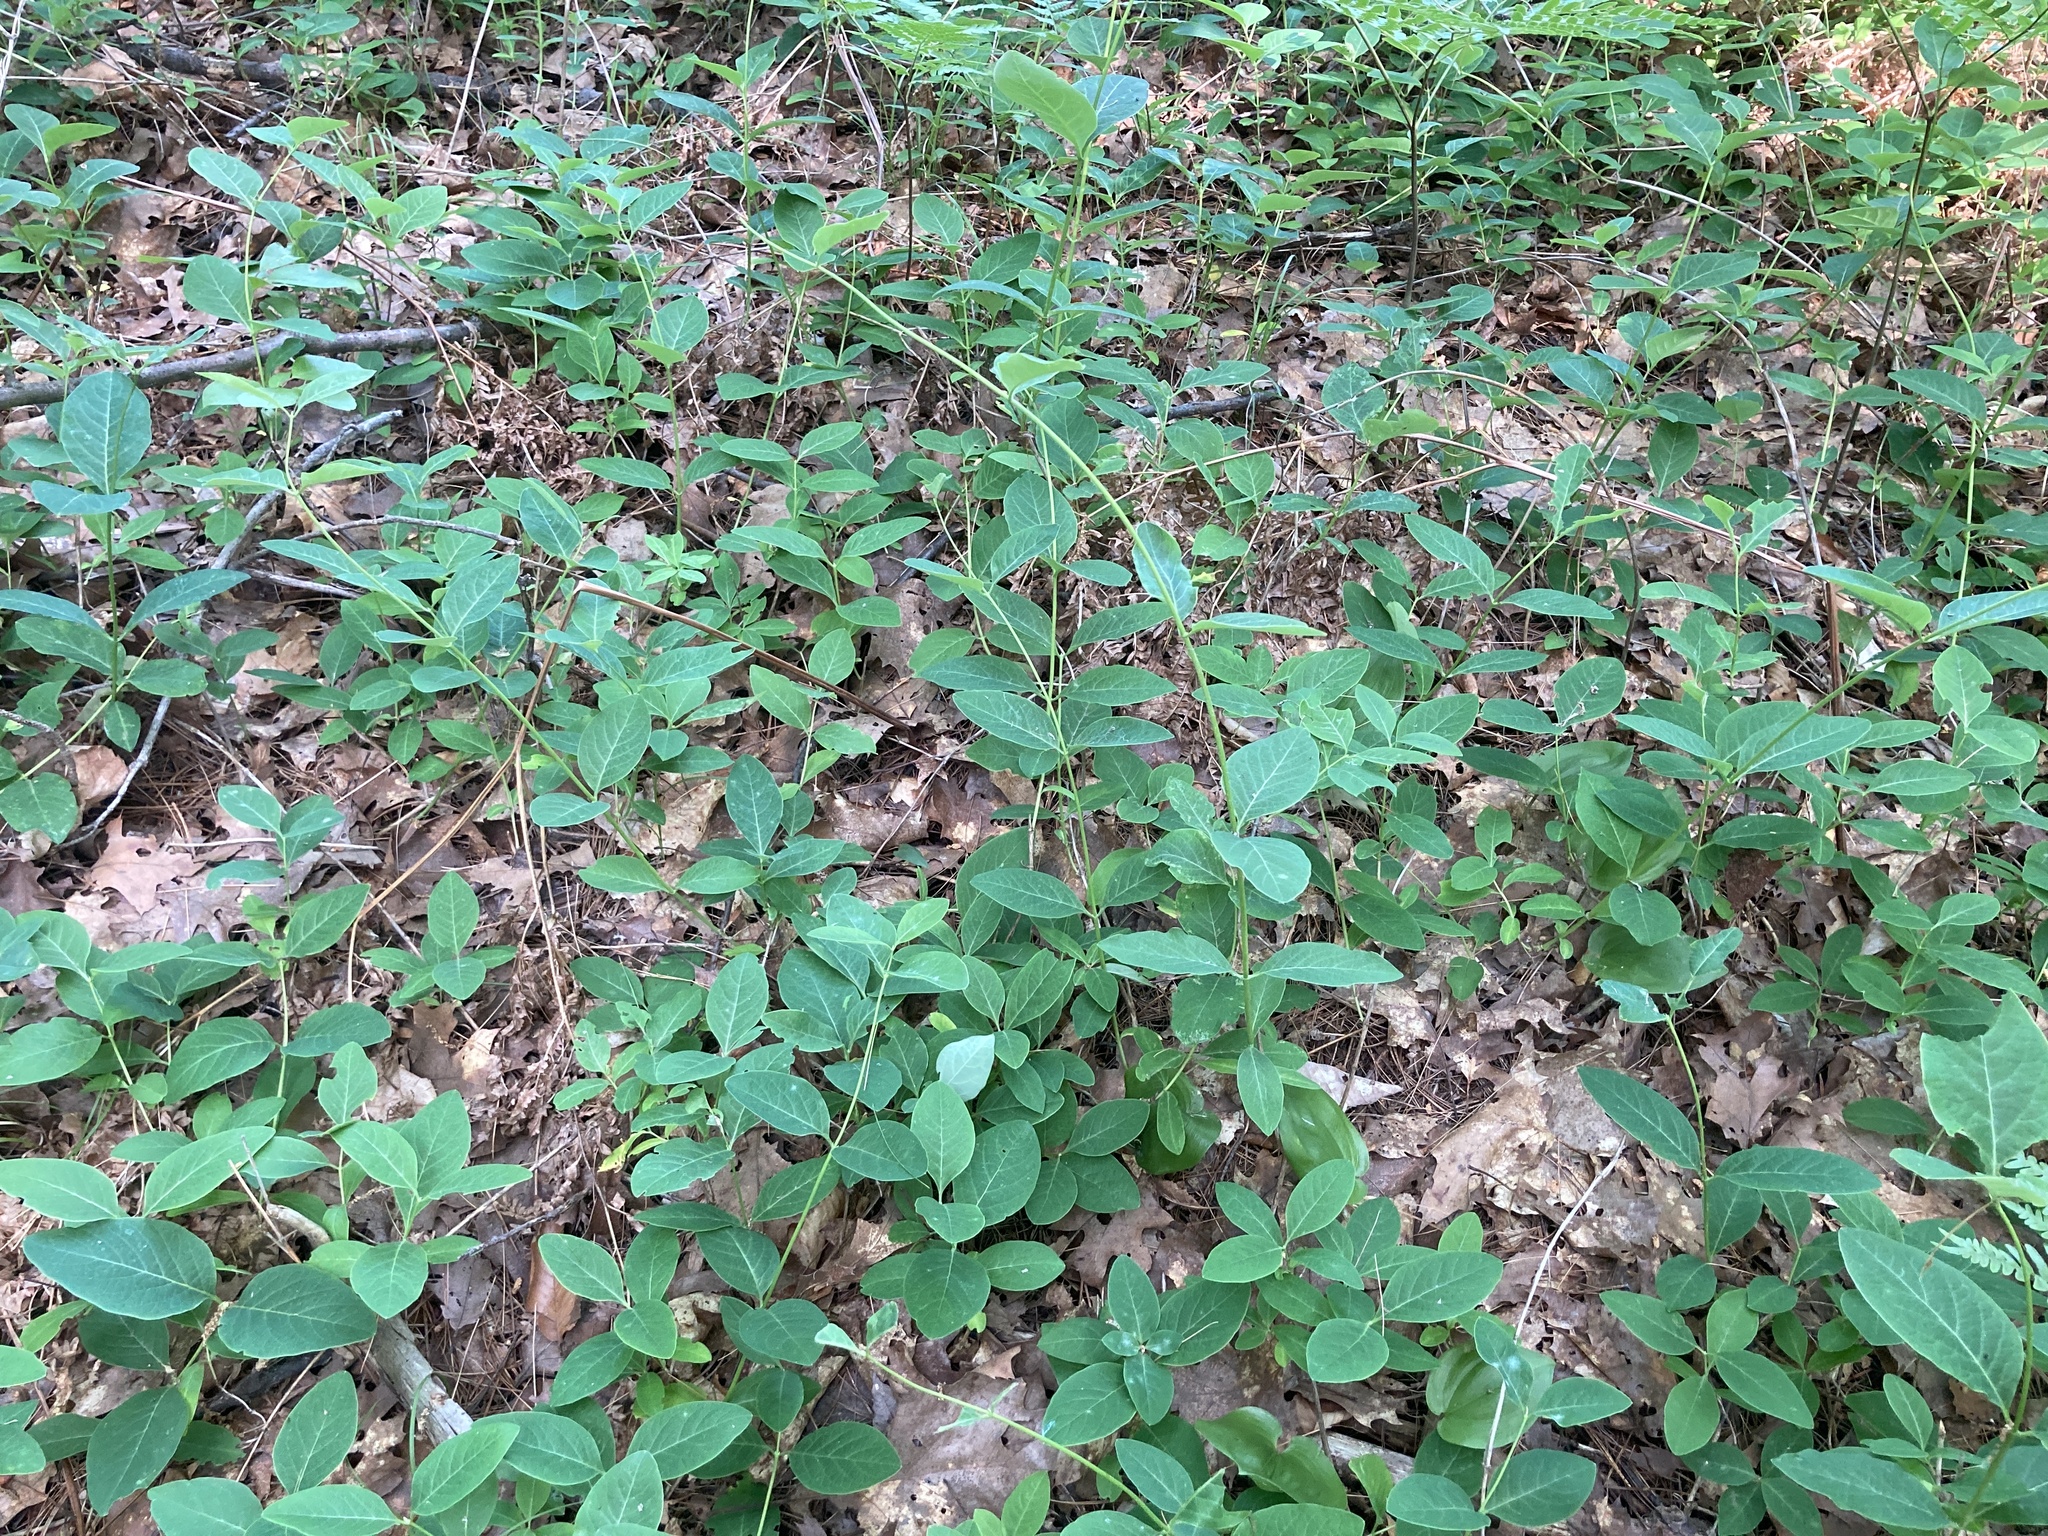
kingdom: Plantae
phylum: Tracheophyta
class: Magnoliopsida
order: Dipsacales
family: Caprifoliaceae
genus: Lonicera
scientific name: Lonicera dioica
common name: Limber honeysuckle
